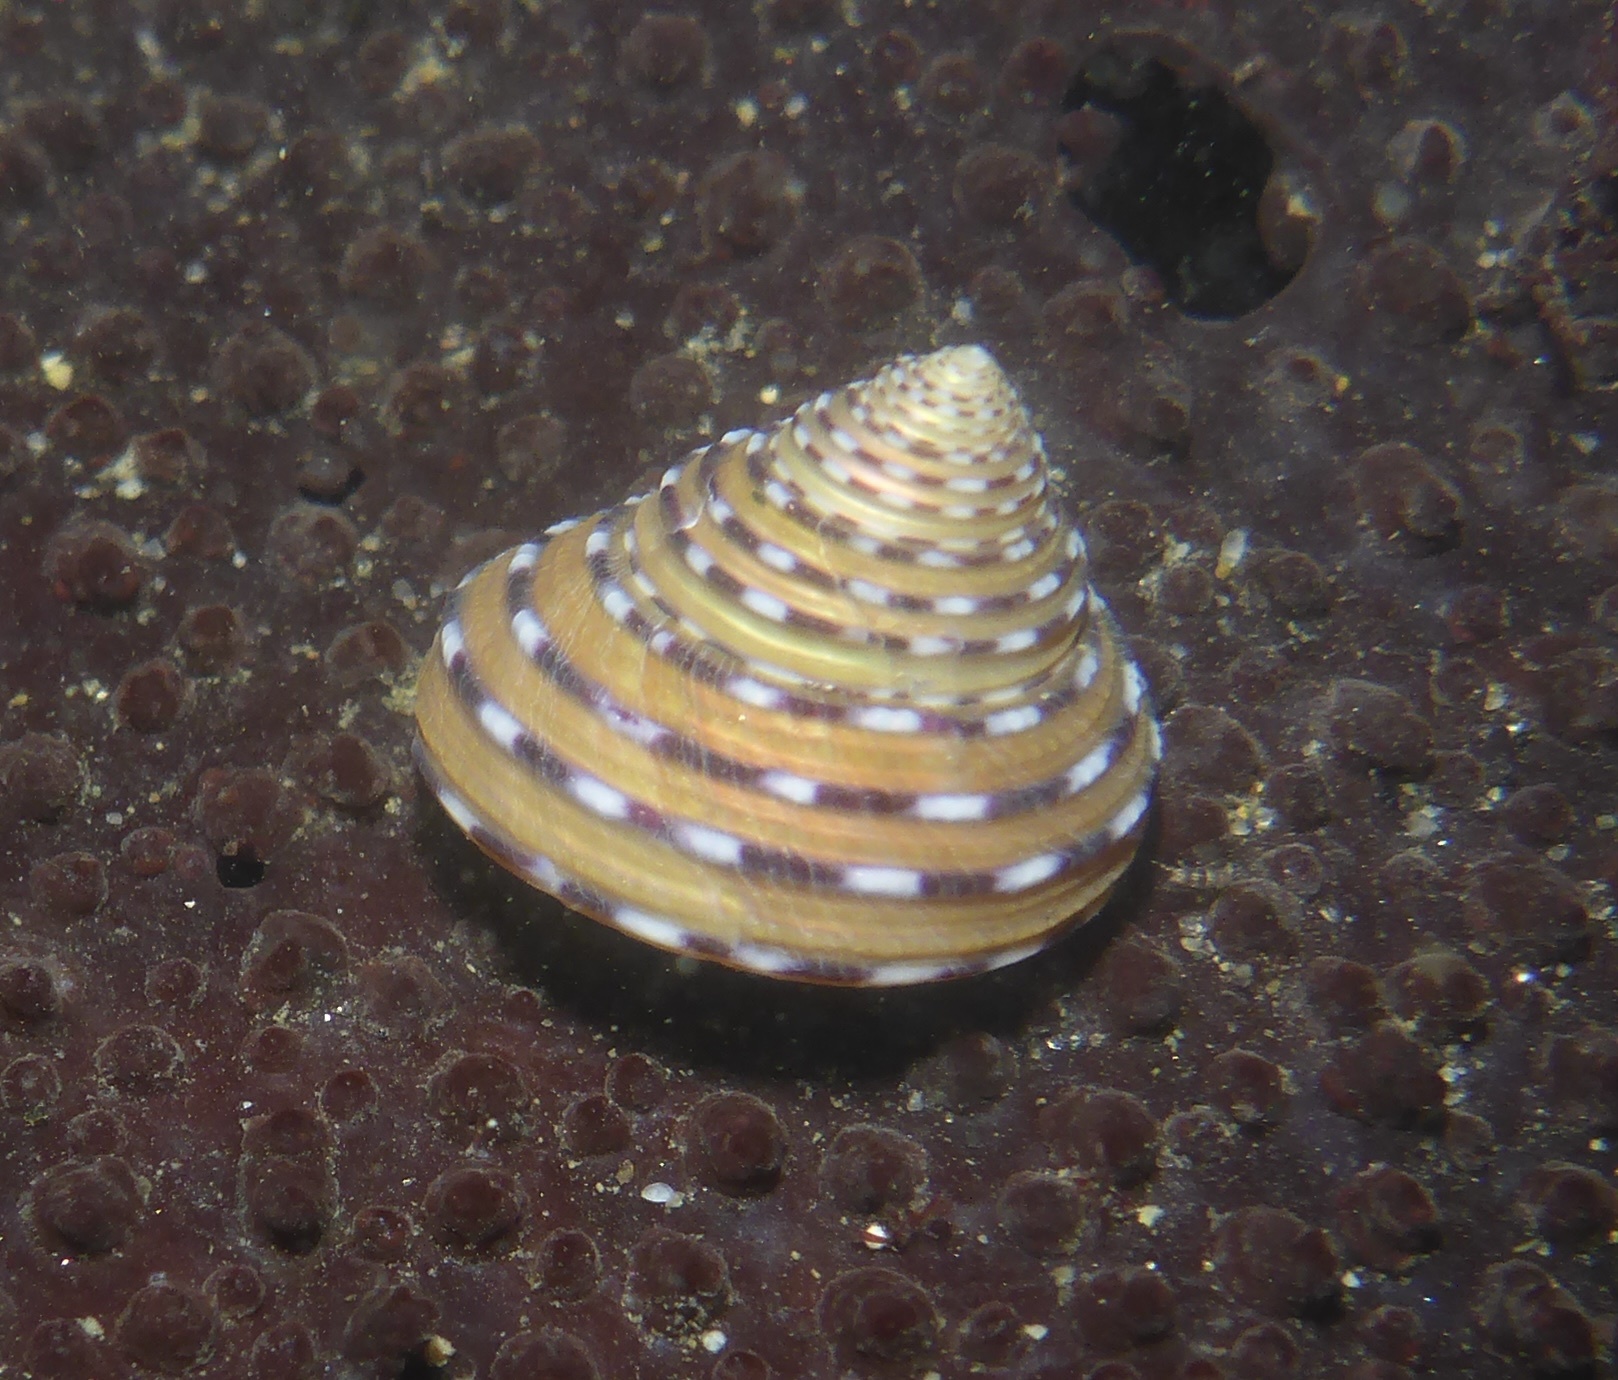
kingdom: Animalia
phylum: Mollusca
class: Gastropoda
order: Trochida
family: Calliostomatidae
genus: Calliostoma
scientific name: Calliostoma tricolor
